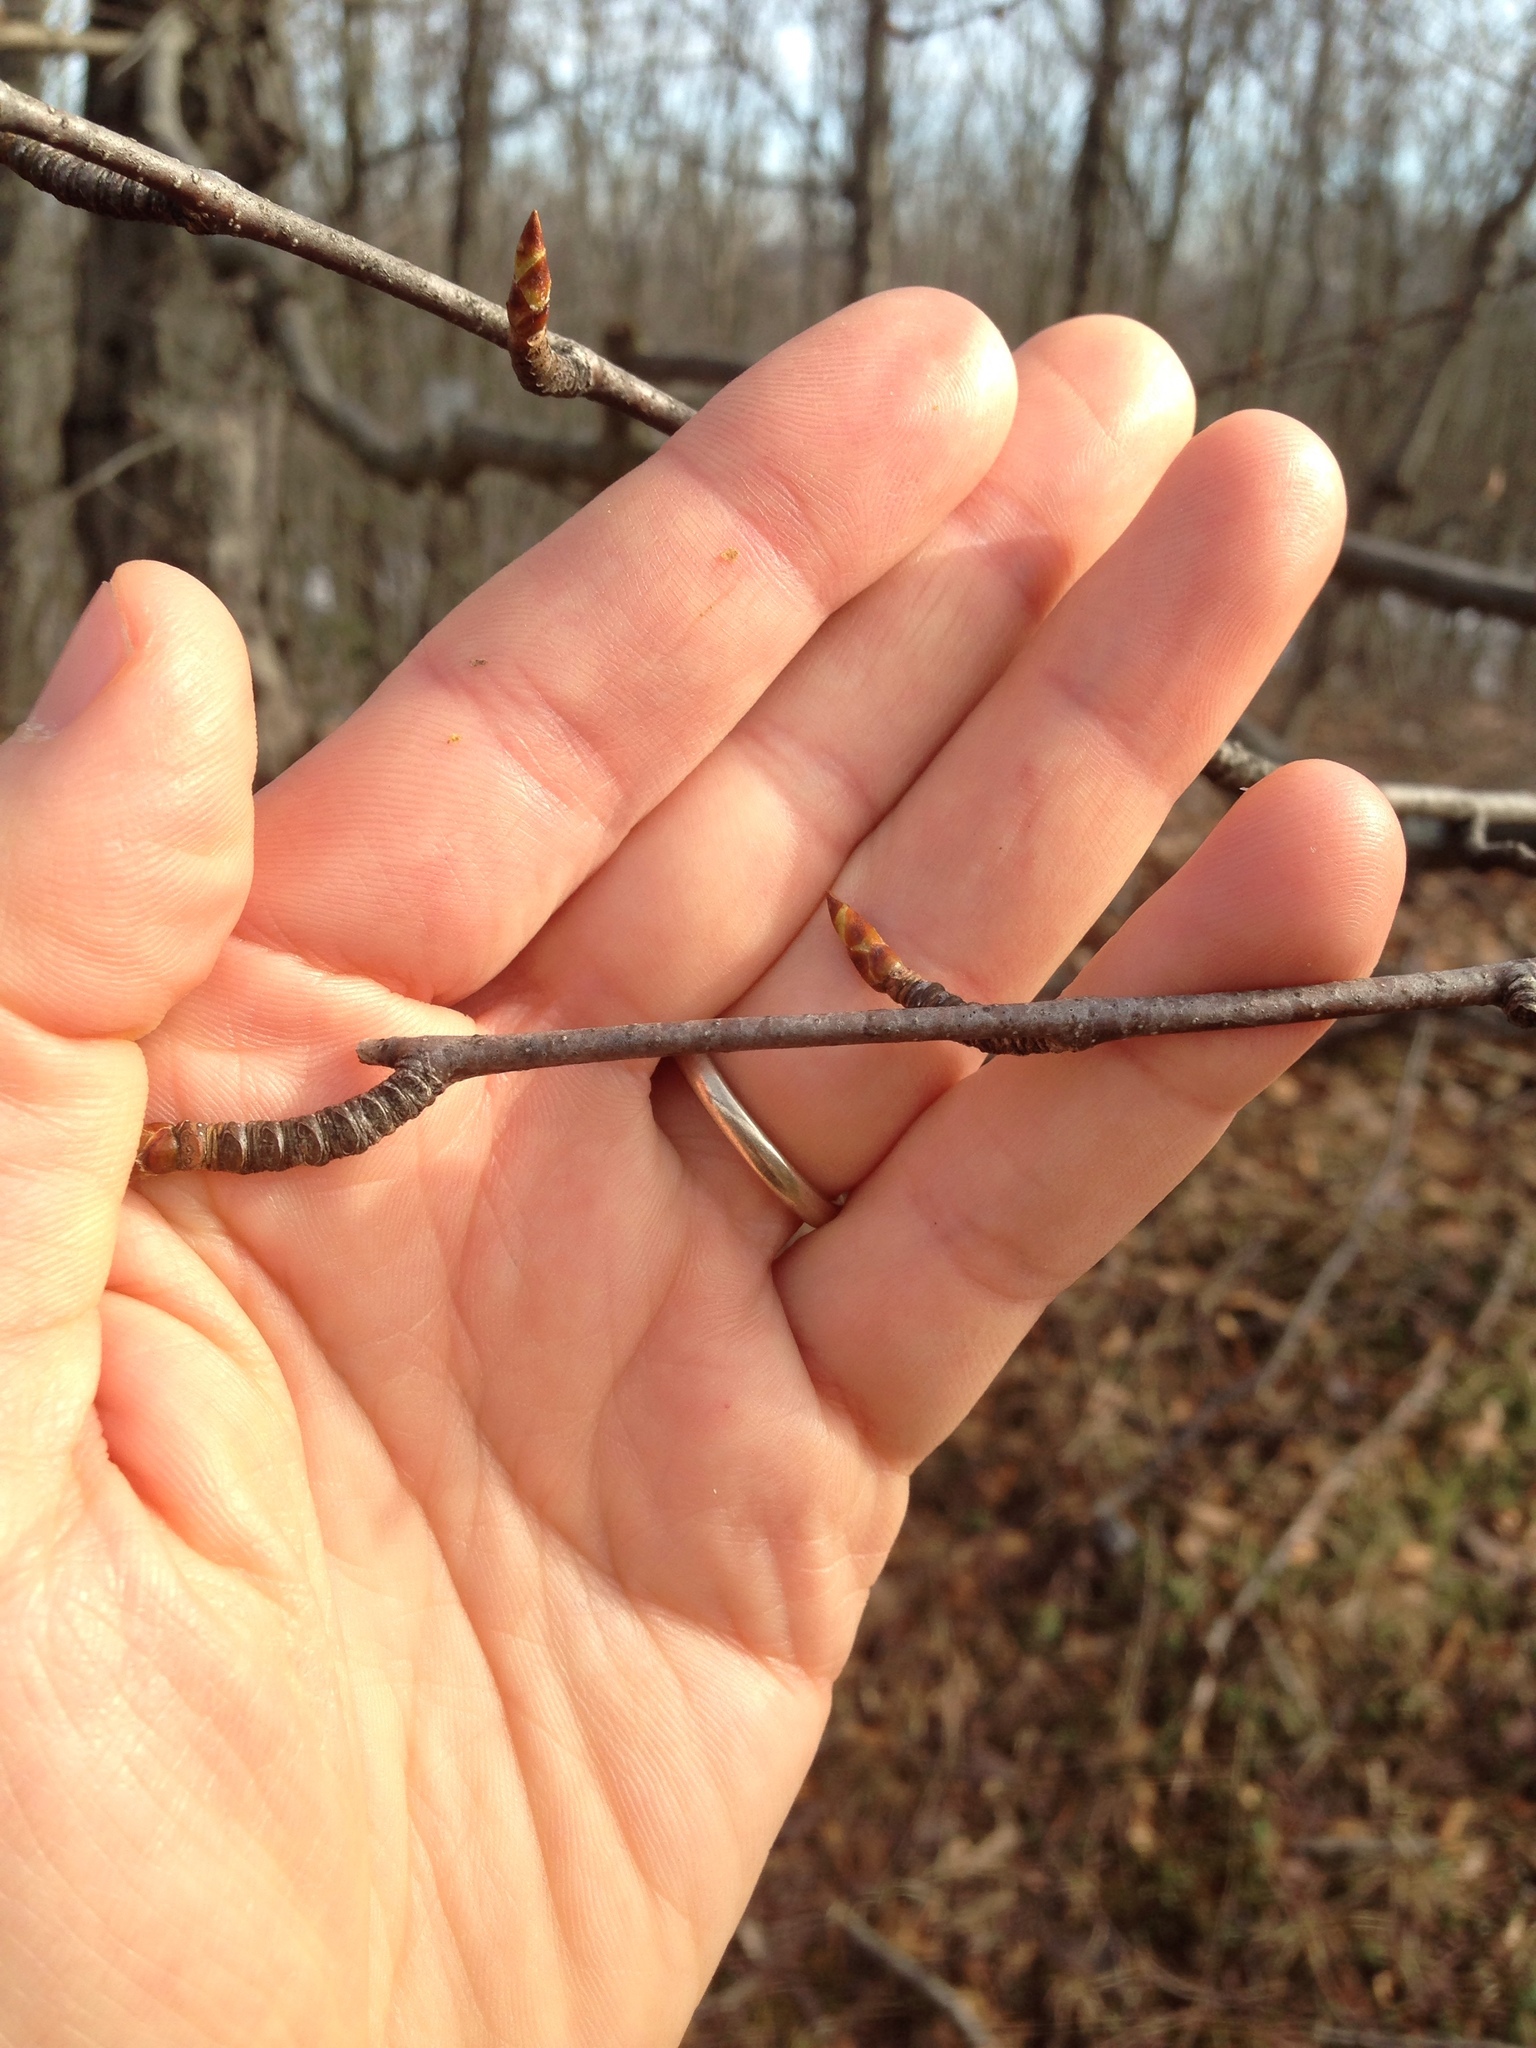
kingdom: Plantae
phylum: Tracheophyta
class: Magnoliopsida
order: Fagales
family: Betulaceae
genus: Betula
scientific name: Betula lenta
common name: Black birch
